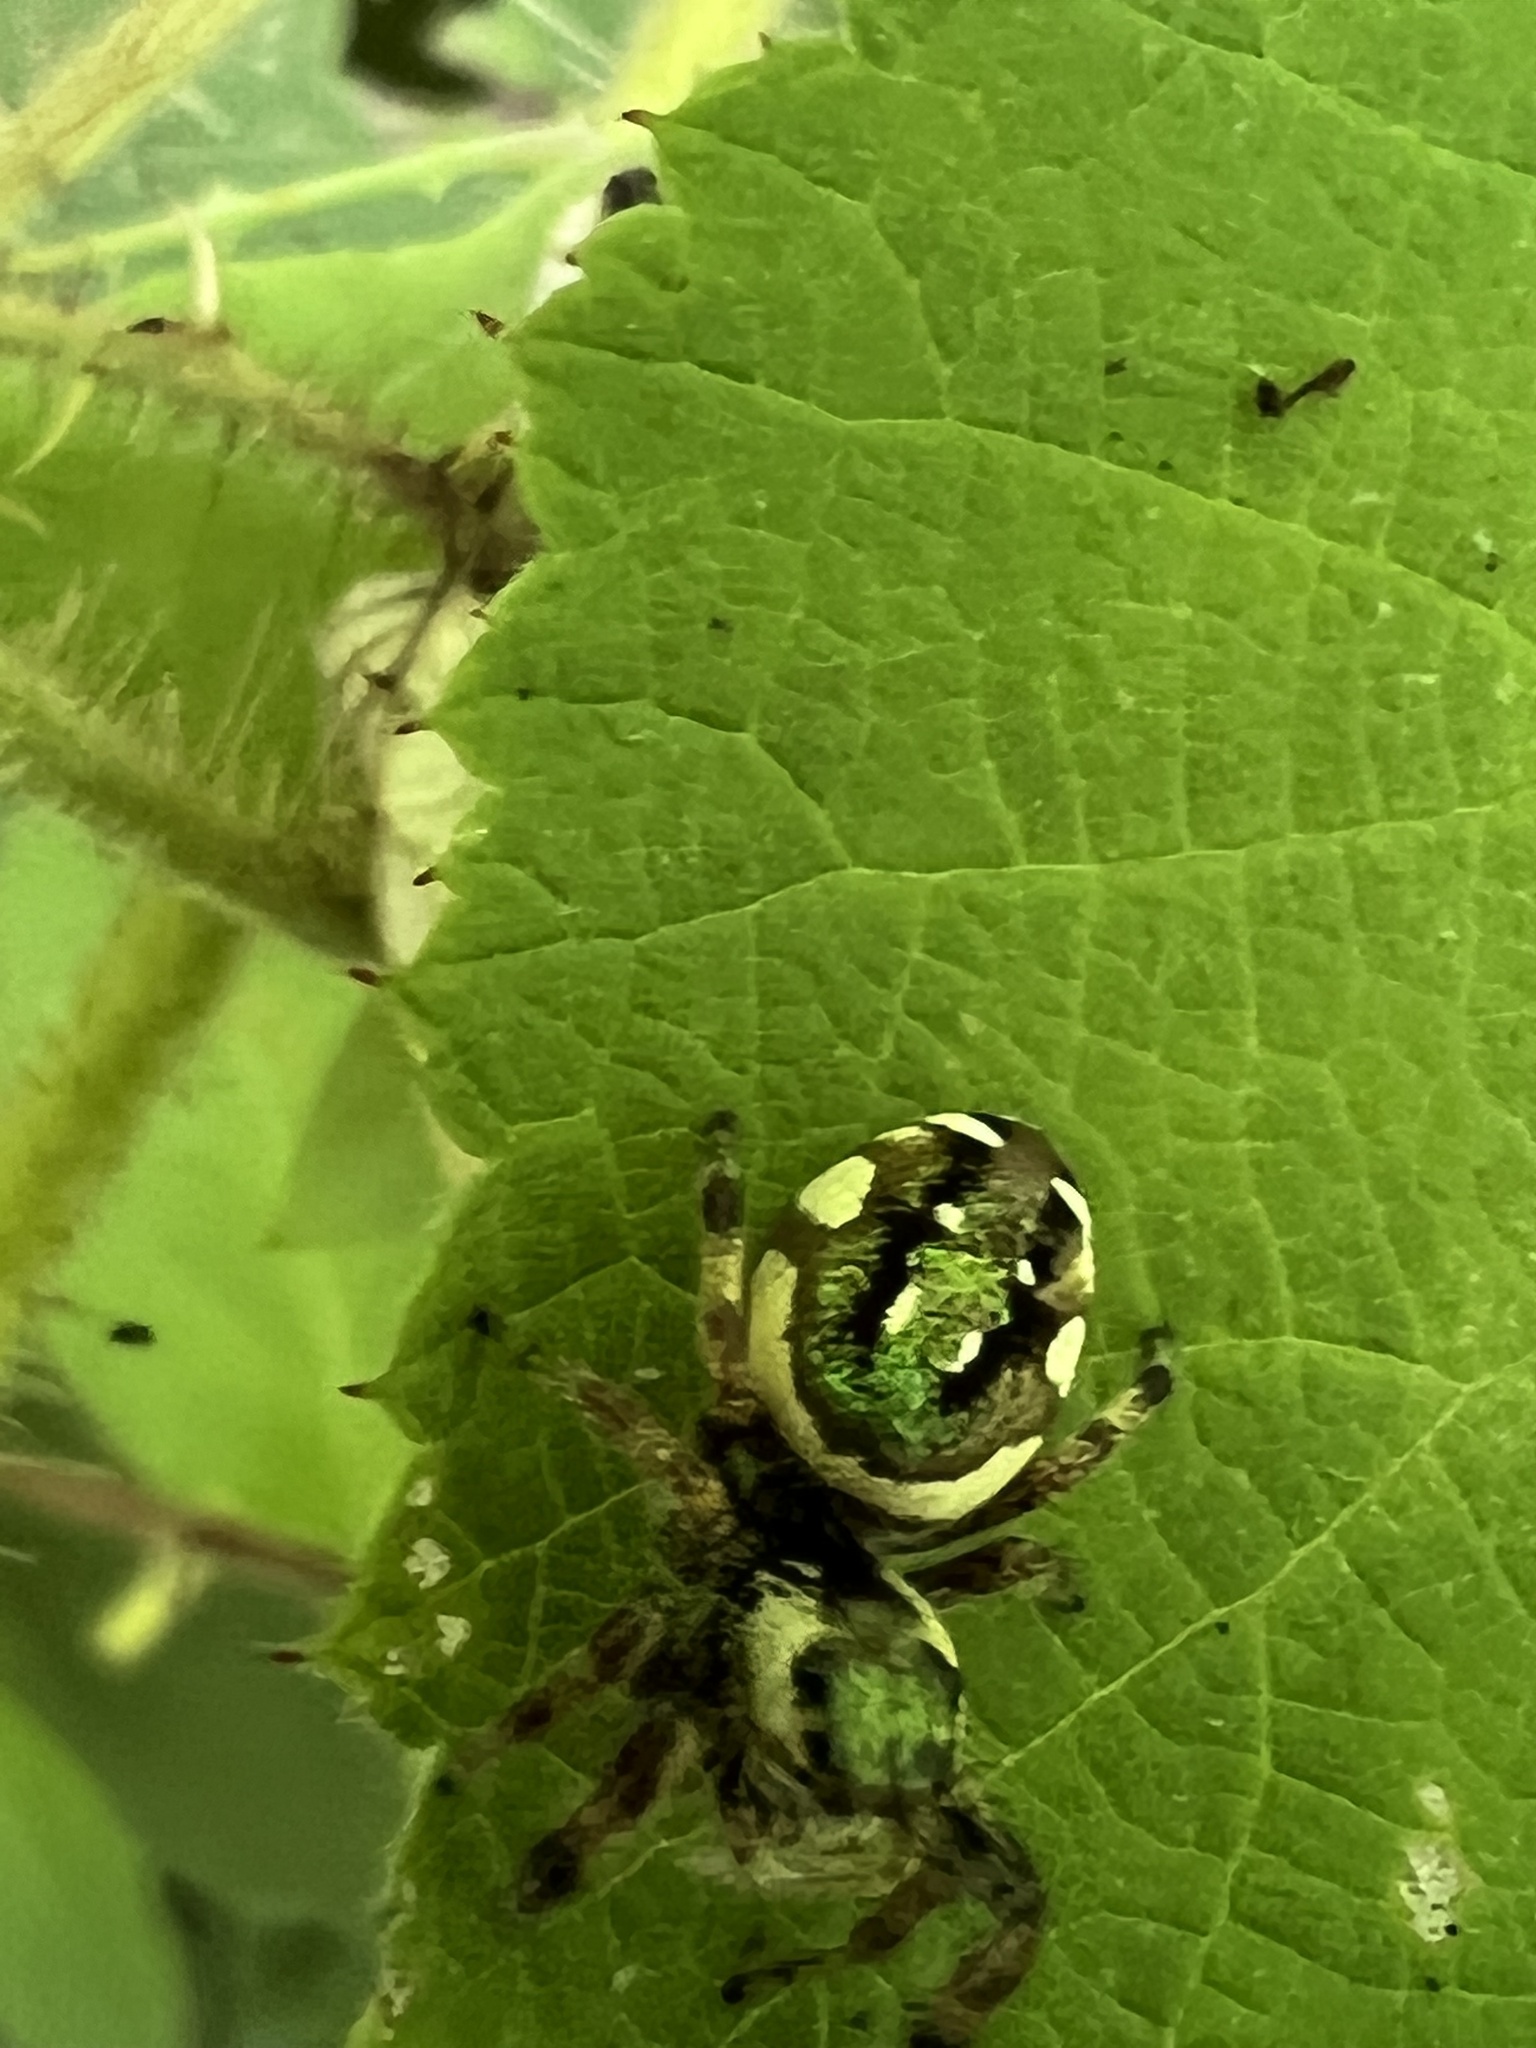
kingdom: Animalia
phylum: Arthropoda
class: Arachnida
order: Araneae
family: Salticidae
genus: Paraphidippus
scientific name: Paraphidippus aurantius
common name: Jumping spiders
